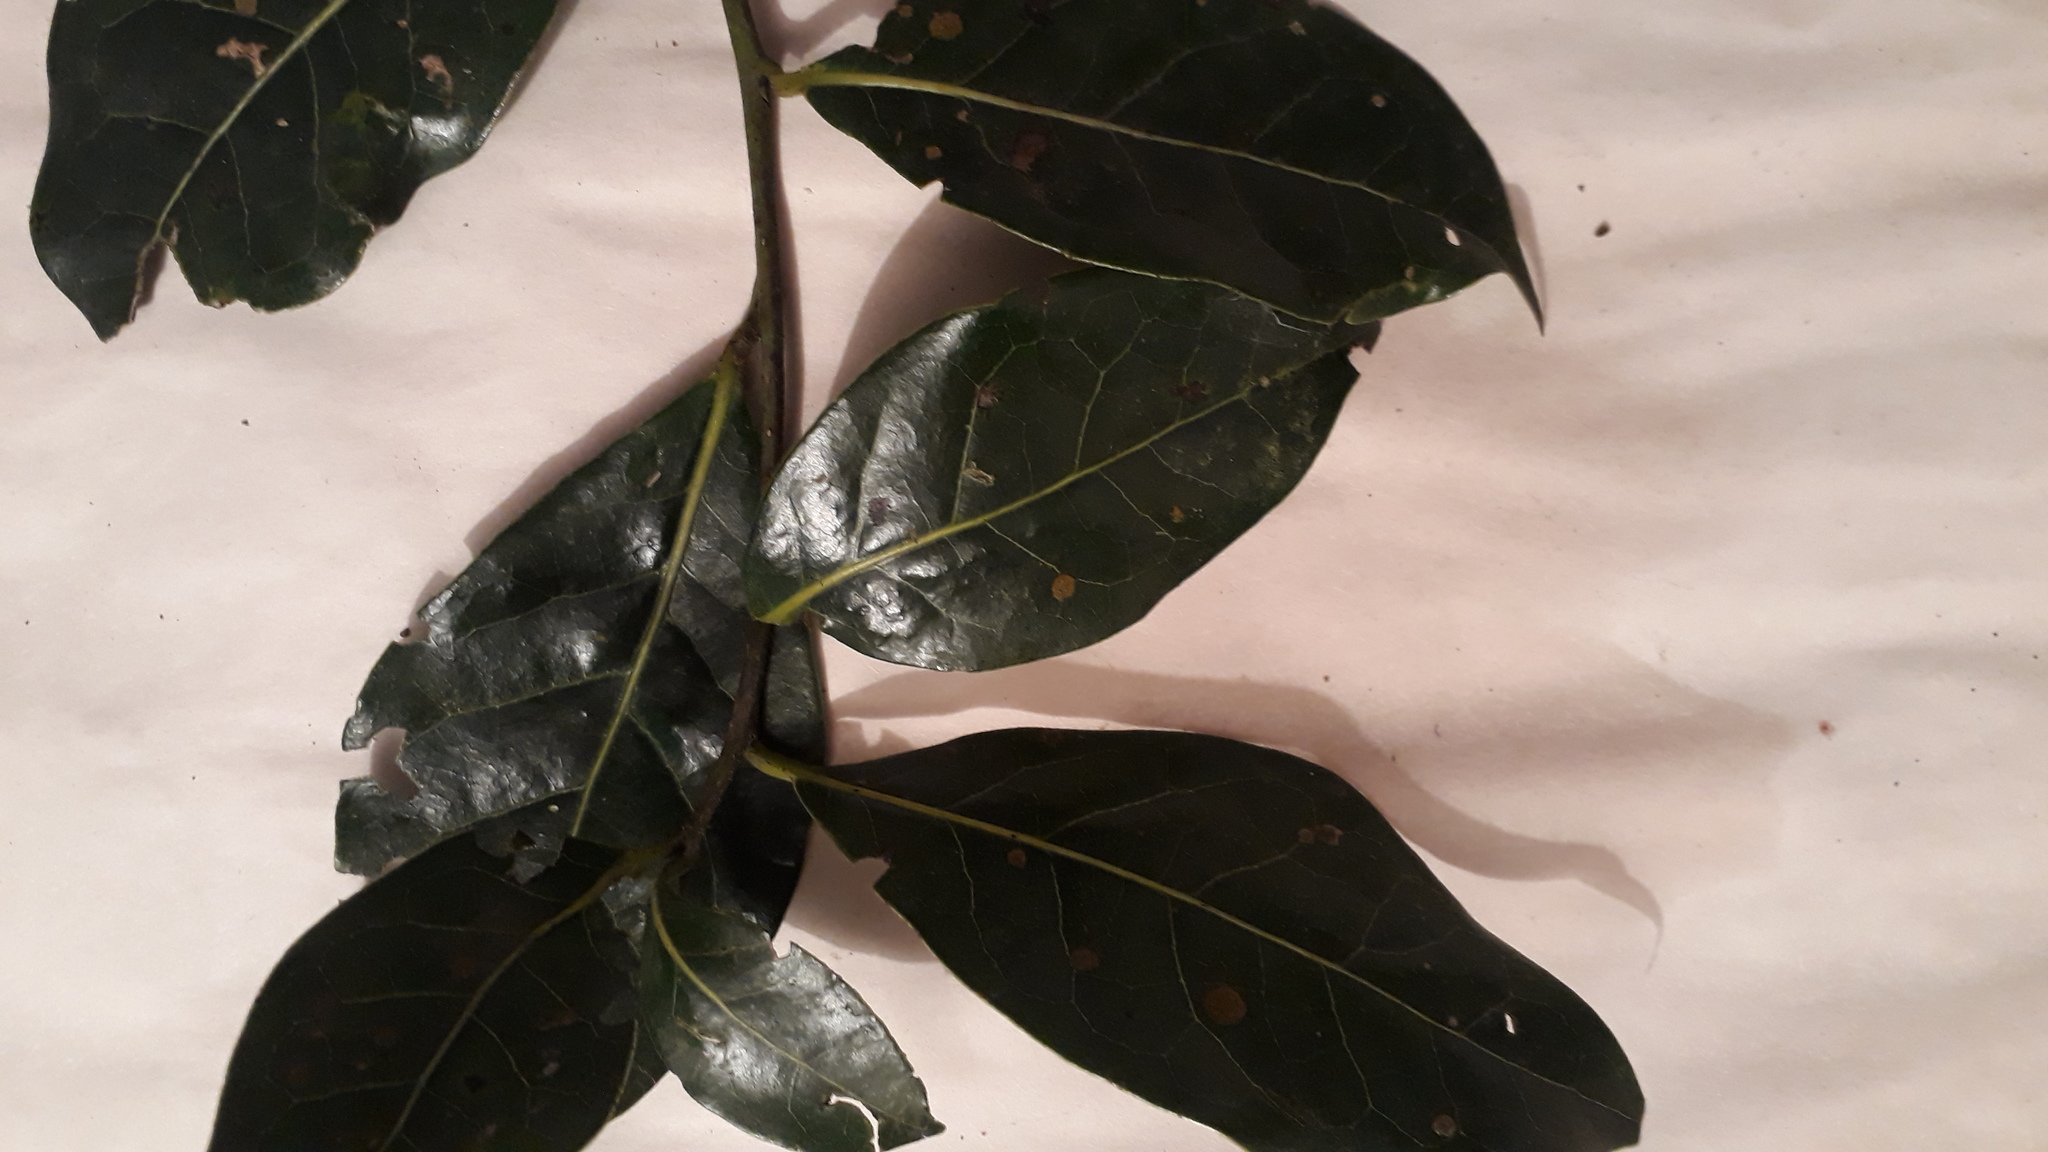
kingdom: Plantae
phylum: Tracheophyta
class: Magnoliopsida
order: Laurales
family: Lauraceae
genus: Aiouea
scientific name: Aiouea dubia
